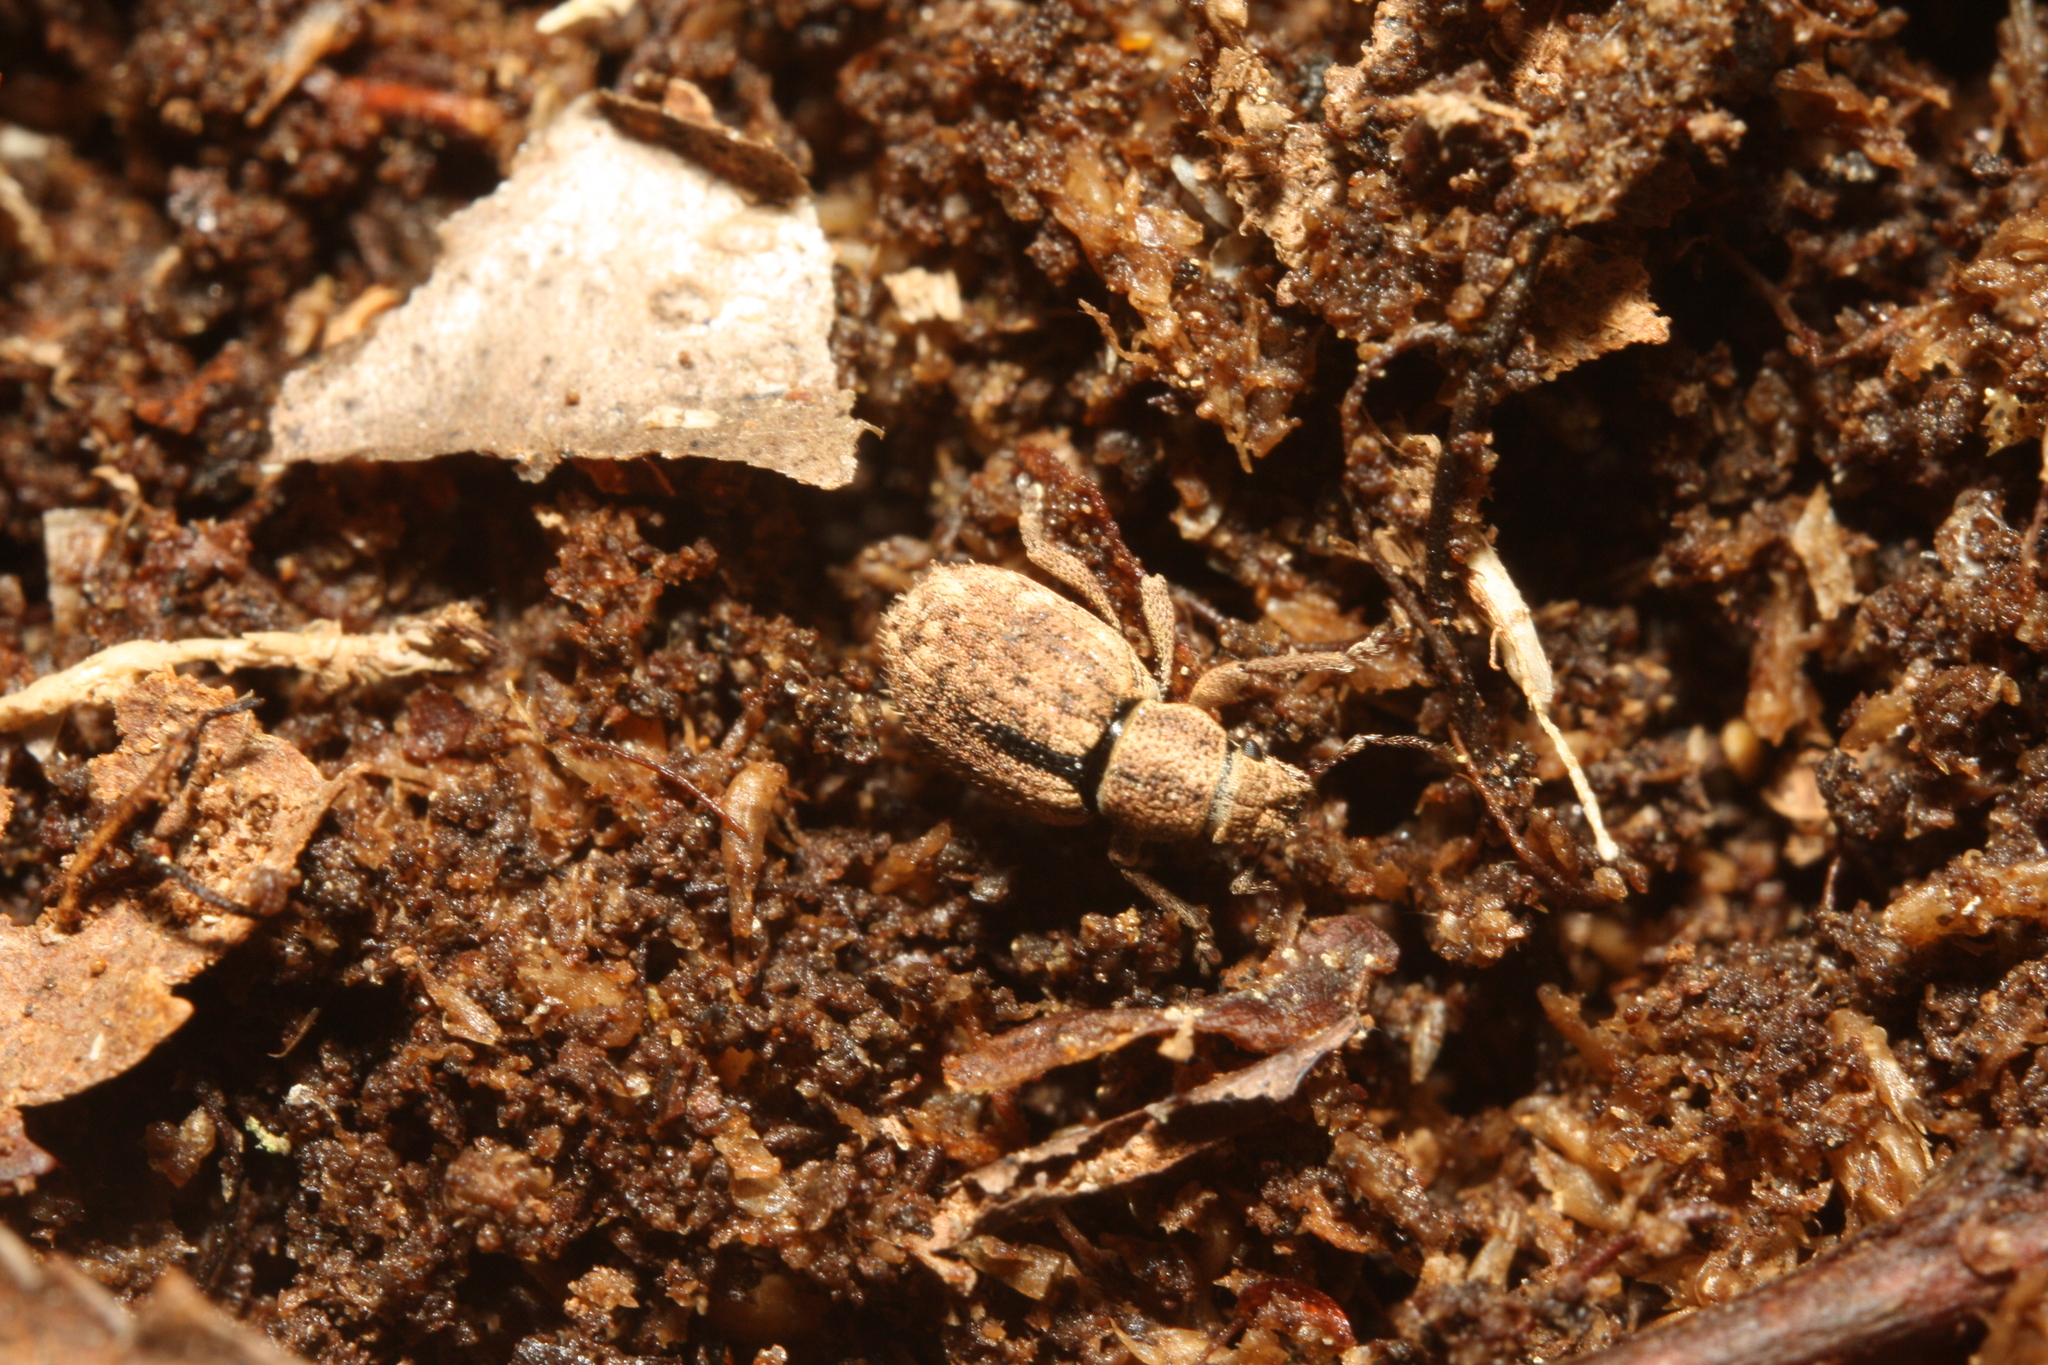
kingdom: Animalia
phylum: Arthropoda
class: Insecta
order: Coleoptera
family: Curculionidae
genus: Strophosoma
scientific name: Strophosoma melanogrammum
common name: Weevil
